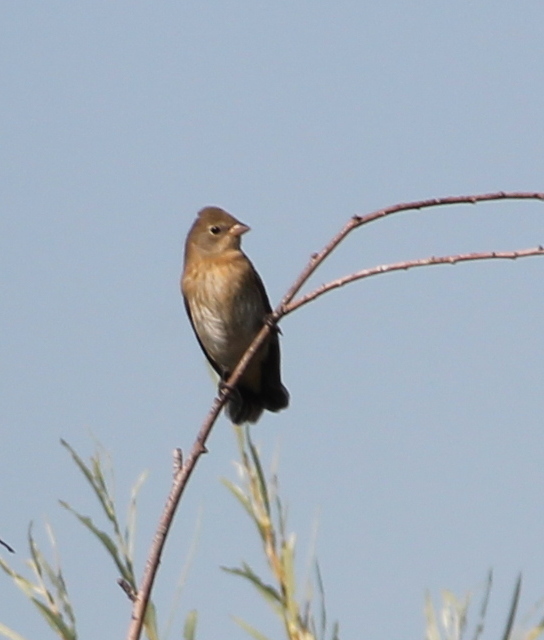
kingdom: Animalia
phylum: Chordata
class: Aves
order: Passeriformes
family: Cardinalidae
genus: Passerina
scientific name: Passerina amoena
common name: Lazuli bunting
